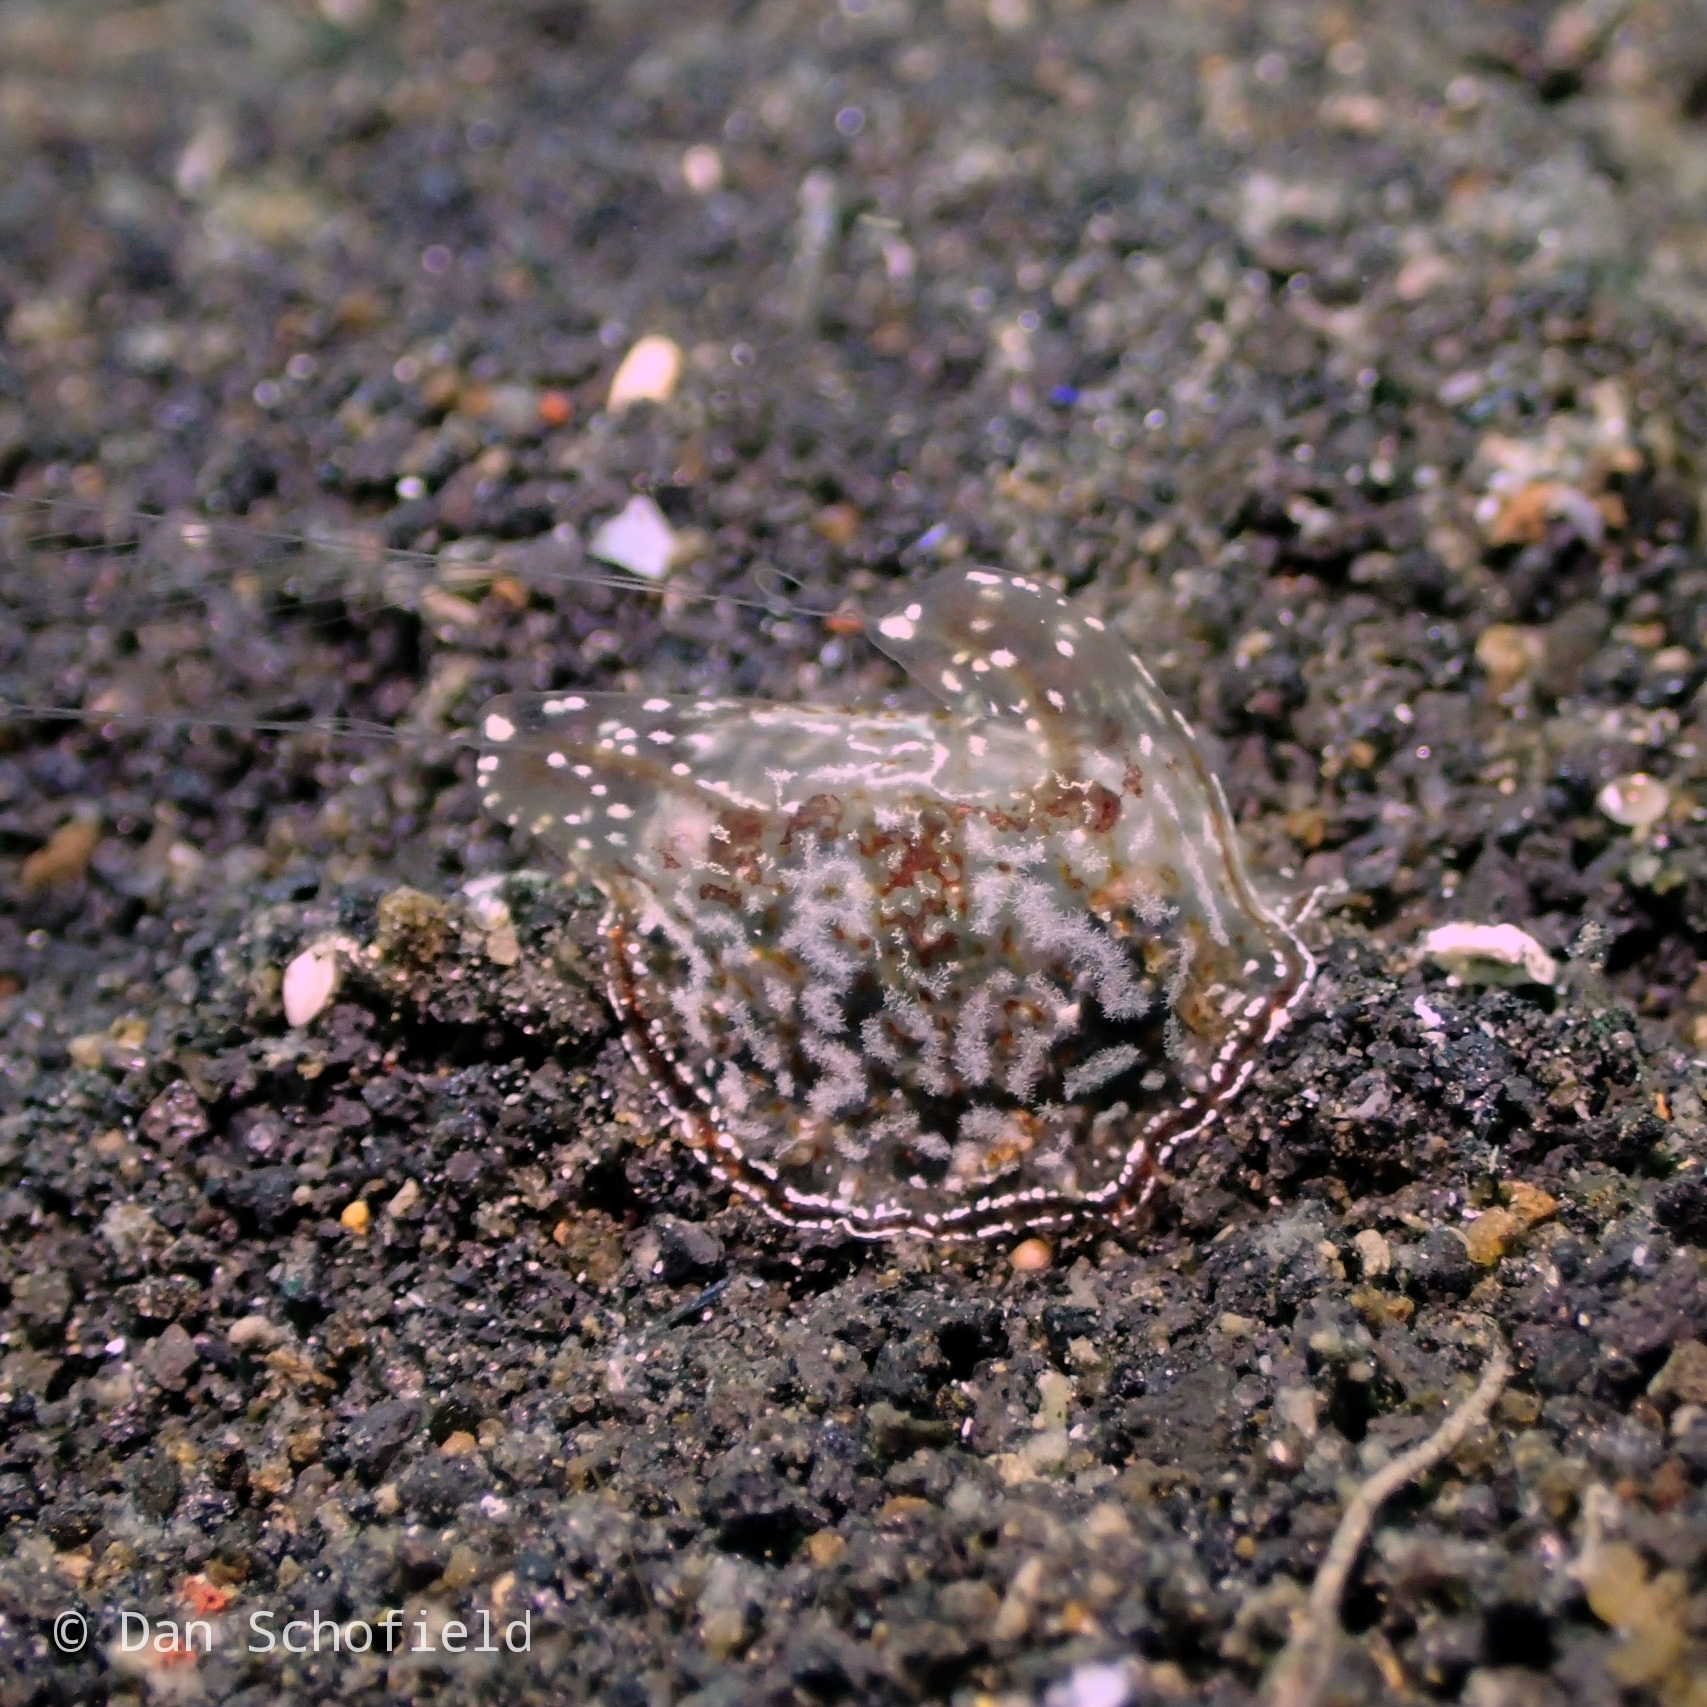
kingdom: Animalia
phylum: Ctenophora
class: Tentaculata
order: Platyctenida
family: Coeloplanidae
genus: Coeloplana
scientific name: Coeloplana meteoris
